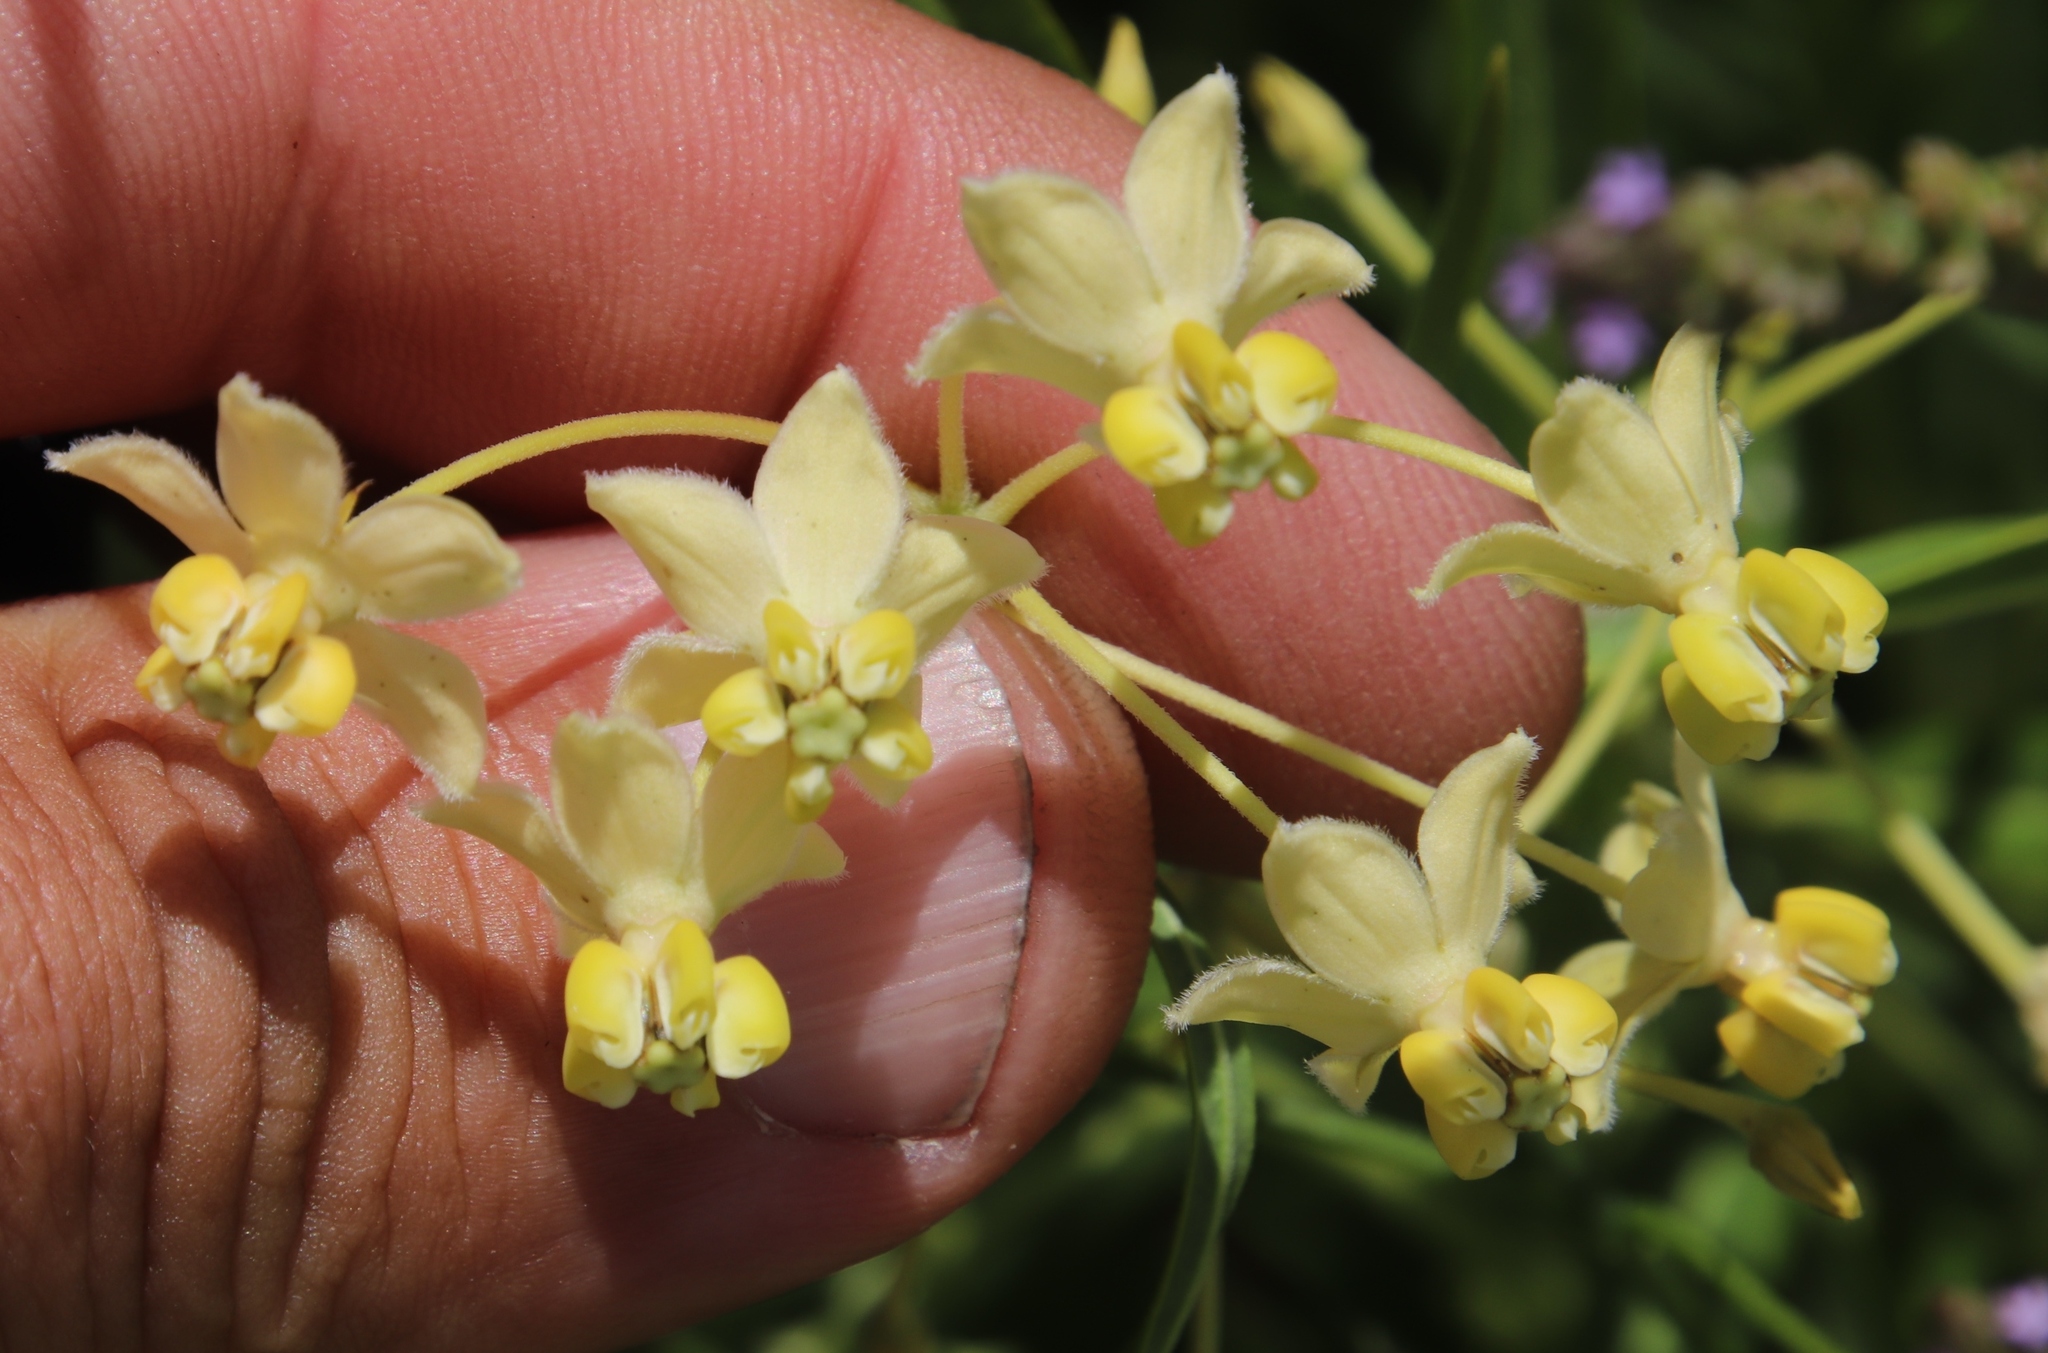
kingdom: Plantae
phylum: Tracheophyta
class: Magnoliopsida
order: Gentianales
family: Apocynaceae
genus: Gomphocarpus
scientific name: Gomphocarpus fruticosus
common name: Milkweed
